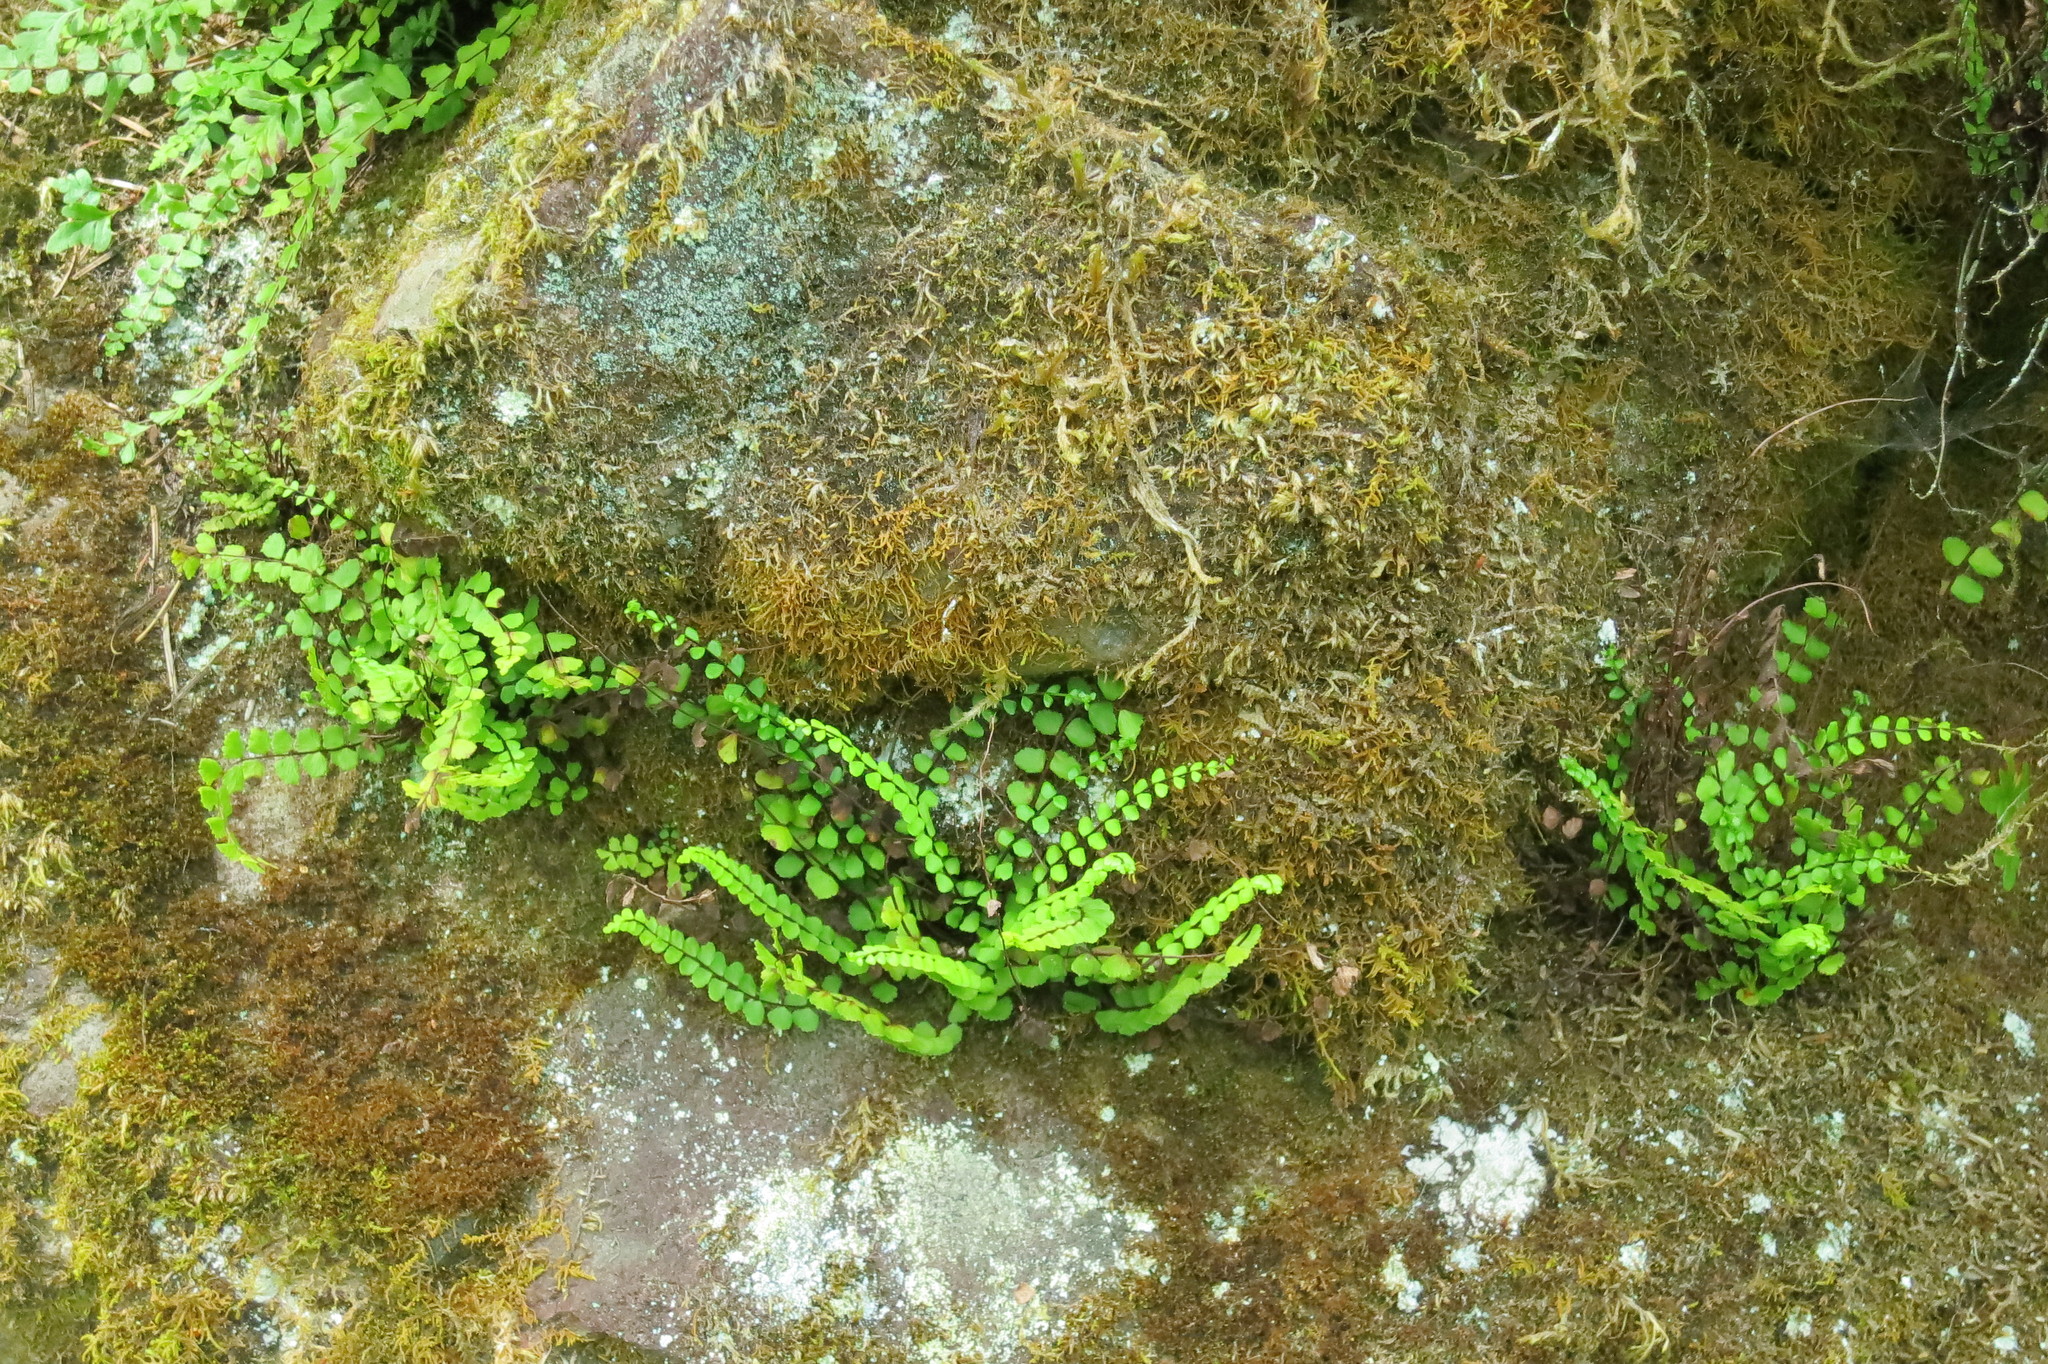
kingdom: Plantae
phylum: Tracheophyta
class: Polypodiopsida
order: Polypodiales
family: Aspleniaceae
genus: Asplenium
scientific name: Asplenium trichomanes
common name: Maidenhair spleenwort
